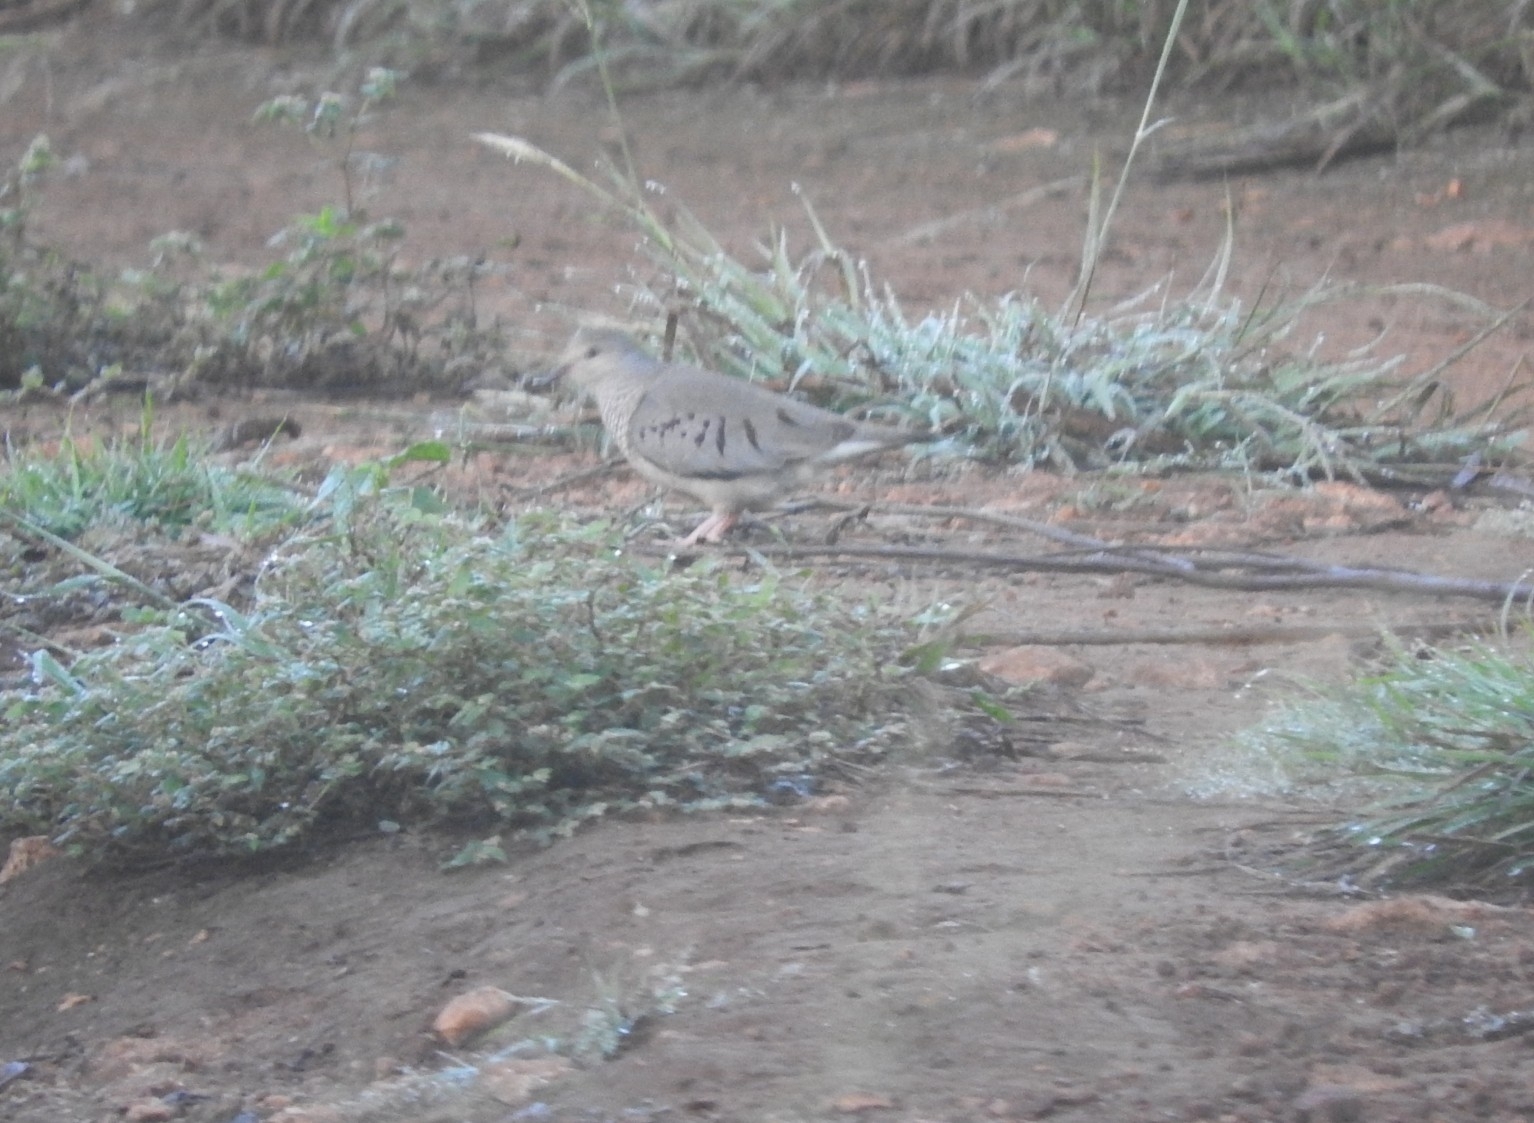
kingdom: Animalia
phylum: Chordata
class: Aves
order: Columbiformes
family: Columbidae
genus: Columbina
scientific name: Columbina passerina
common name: Common ground-dove
